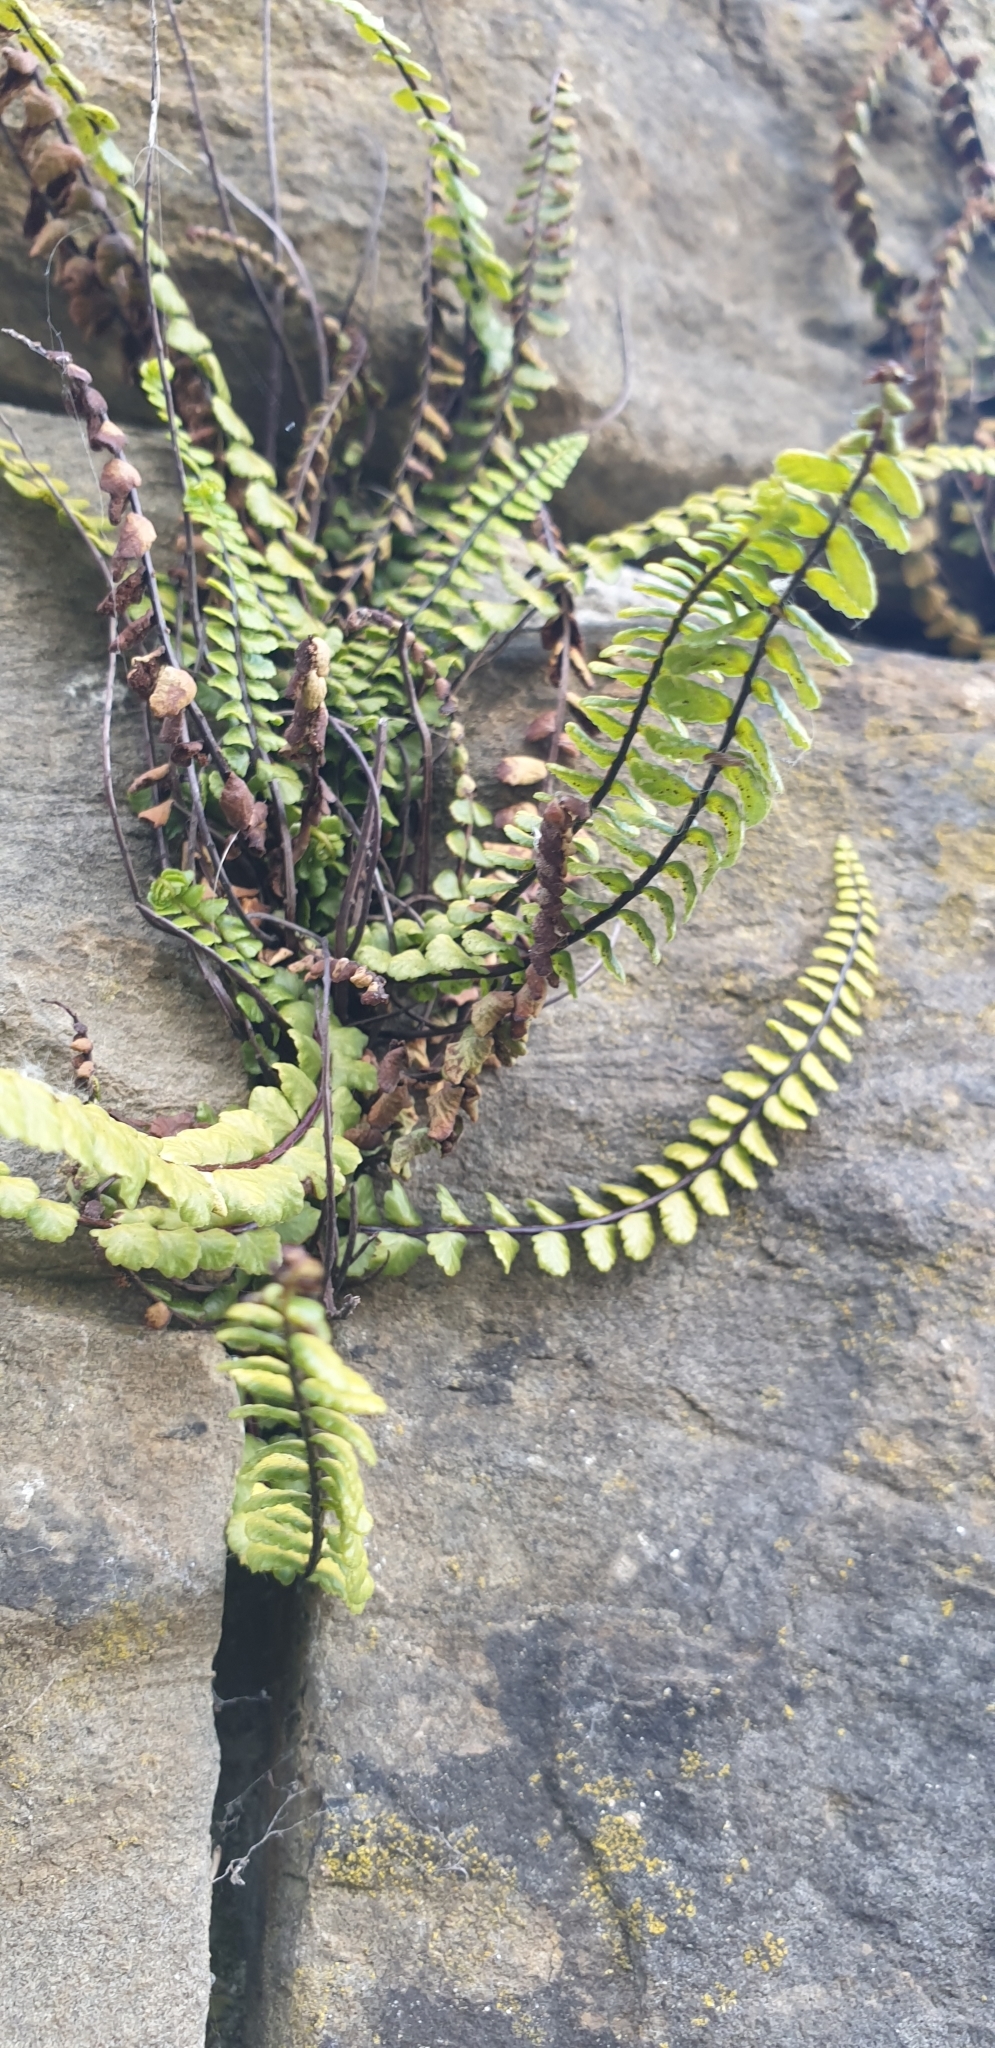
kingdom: Plantae
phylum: Tracheophyta
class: Polypodiopsida
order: Polypodiales
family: Aspleniaceae
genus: Asplenium
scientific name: Asplenium trichomanes
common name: Maidenhair spleenwort
